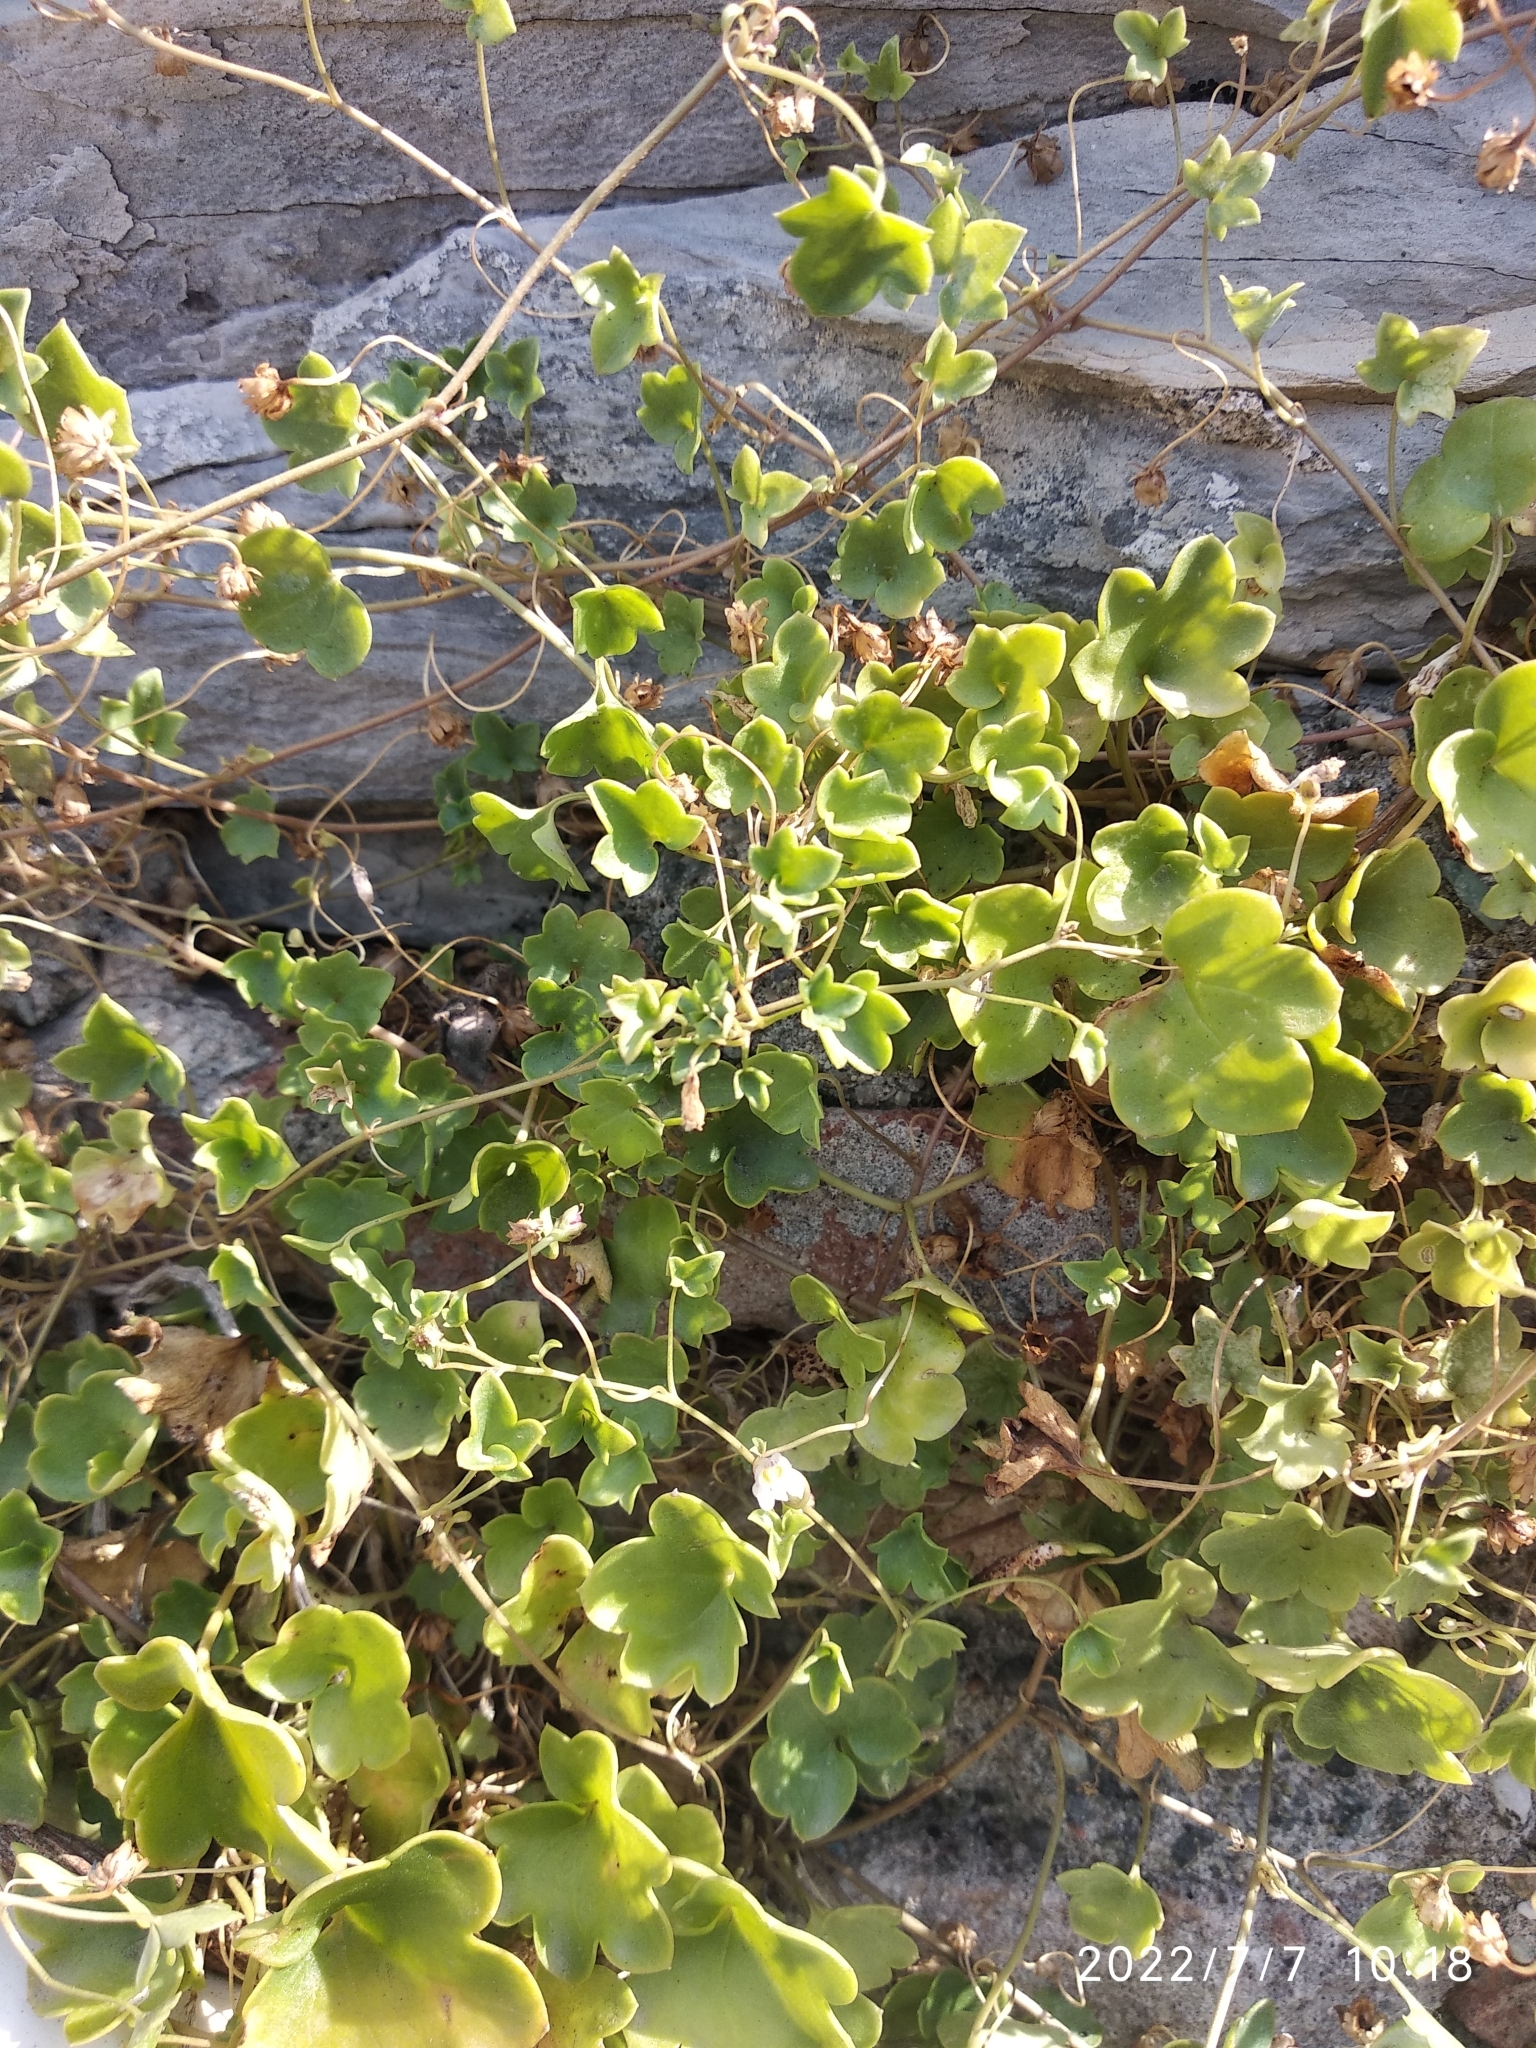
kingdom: Plantae
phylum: Tracheophyta
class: Magnoliopsida
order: Lamiales
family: Plantaginaceae
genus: Cymbalaria
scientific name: Cymbalaria muralis
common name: Ivy-leaved toadflax
